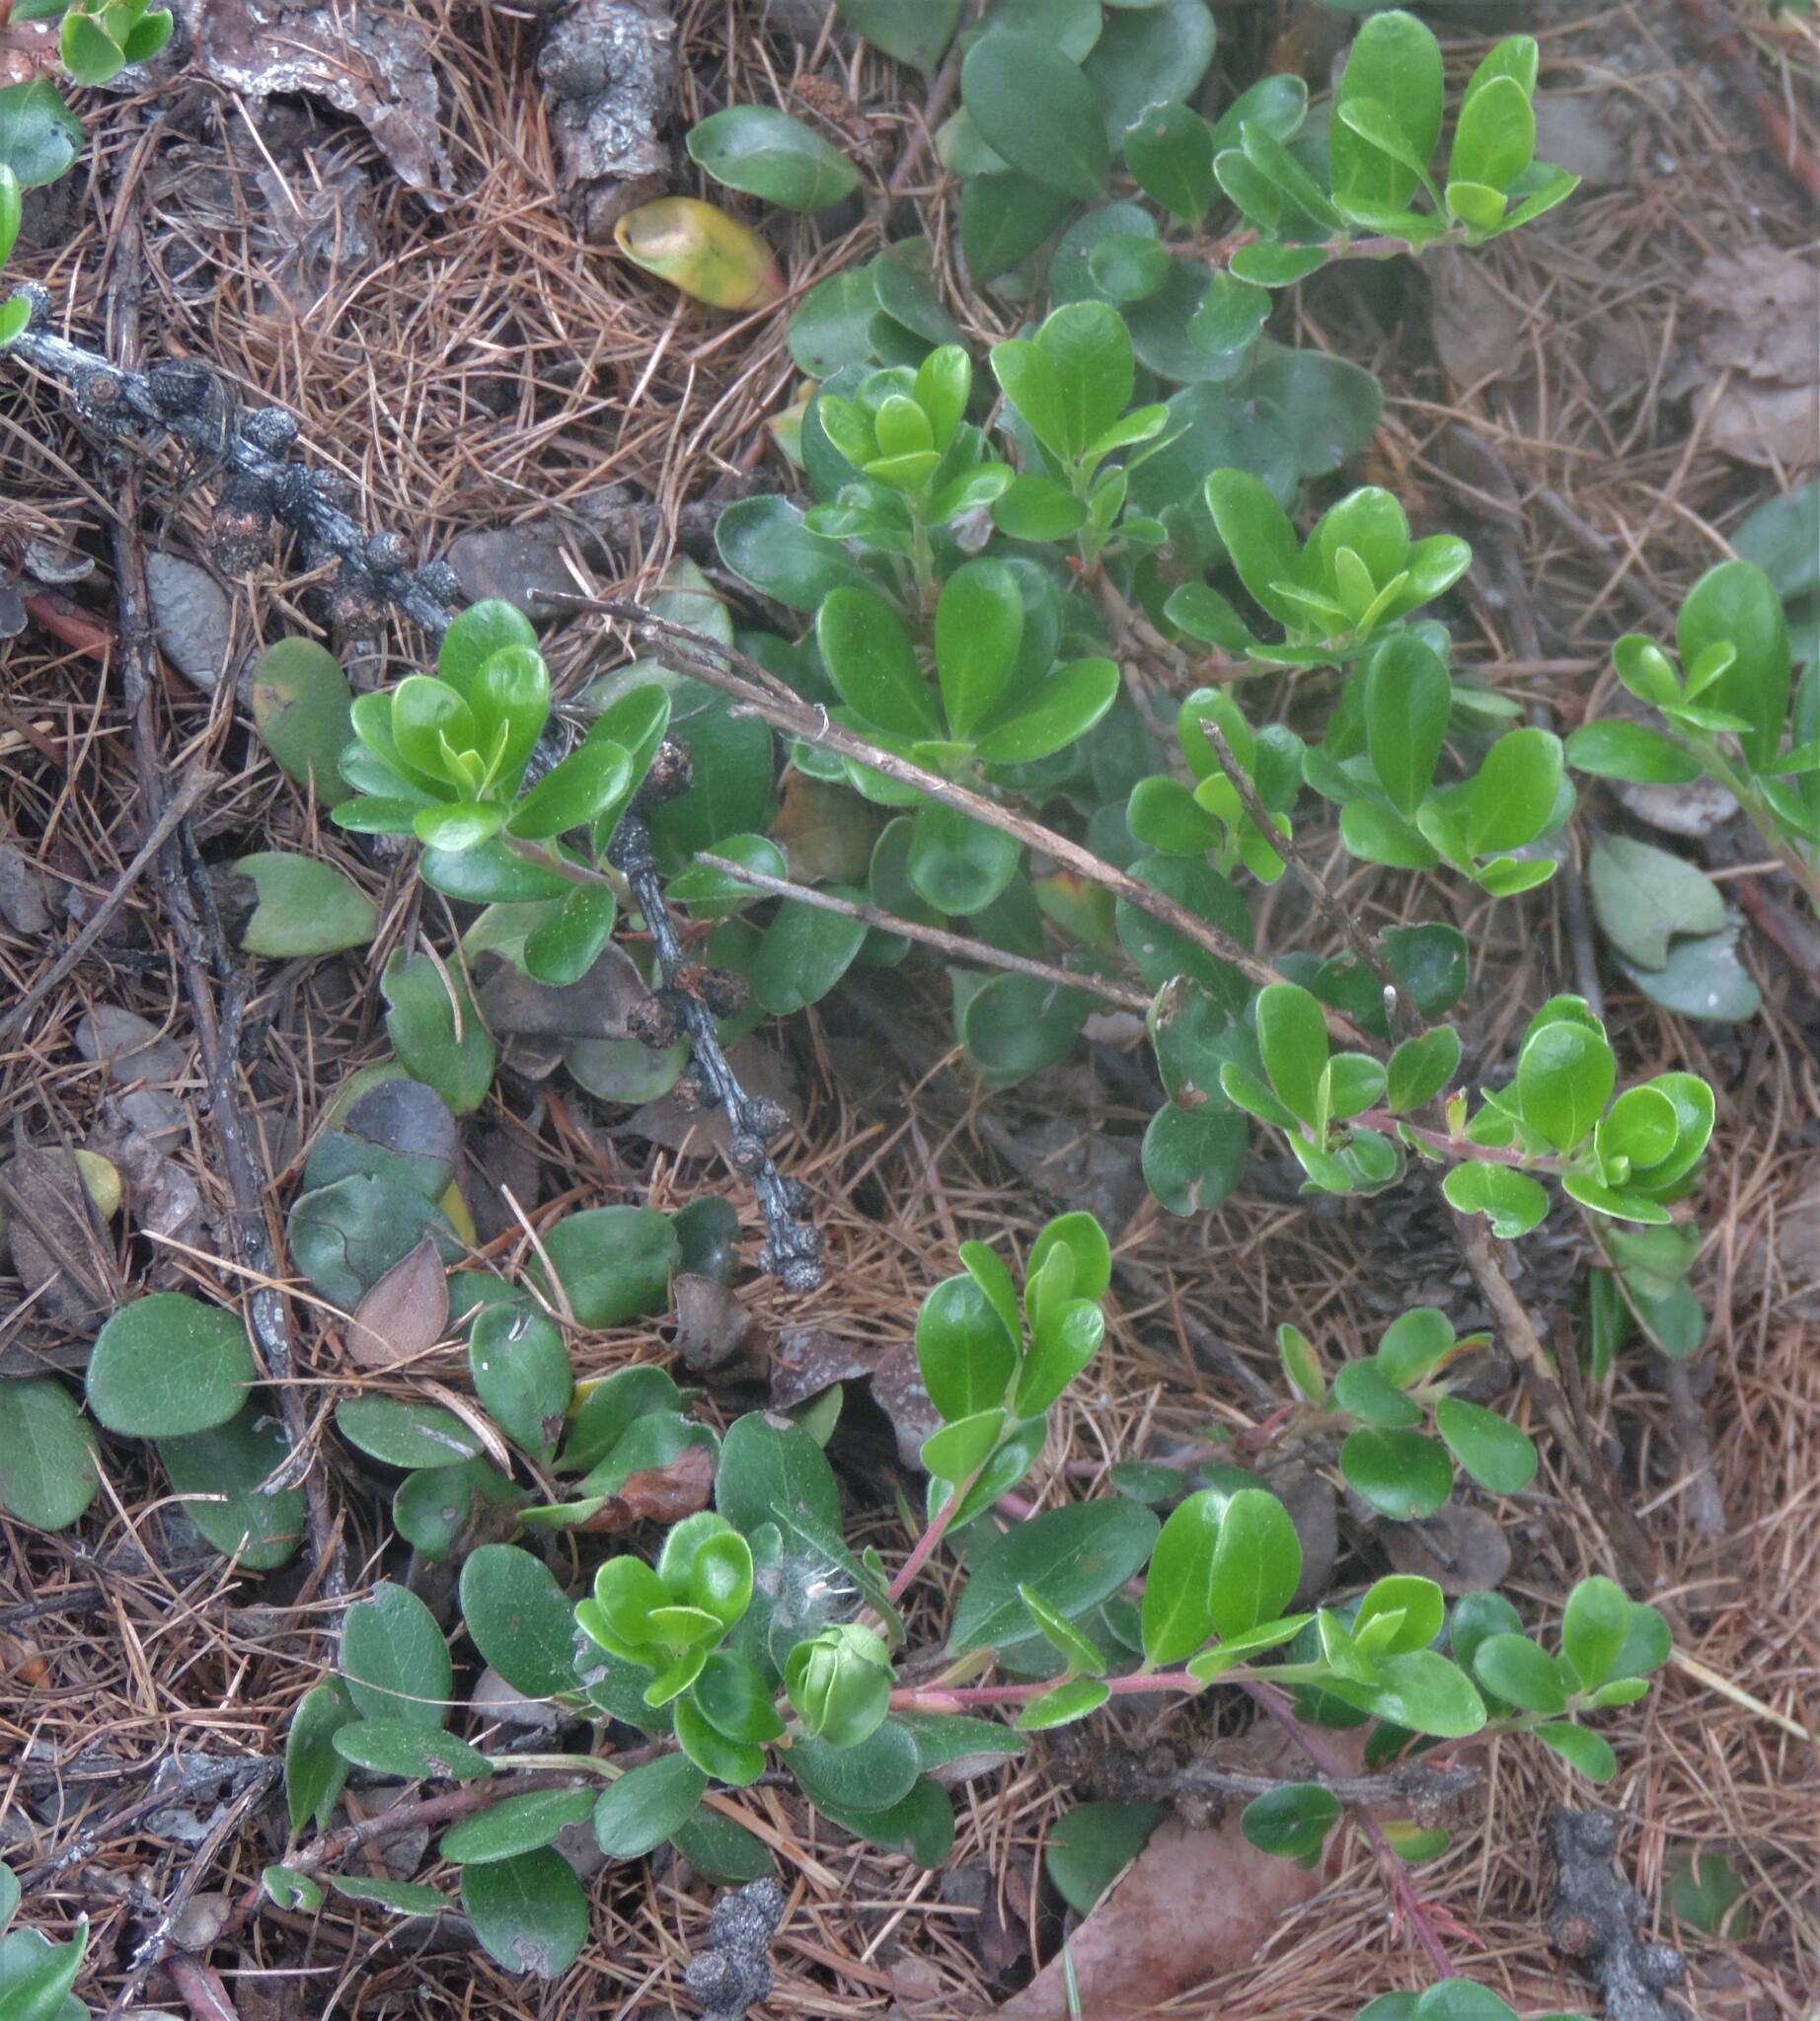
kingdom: Plantae
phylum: Tracheophyta
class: Magnoliopsida
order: Ericales
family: Ericaceae
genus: Arctostaphylos
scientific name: Arctostaphylos uva-ursi
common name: Bearberry
